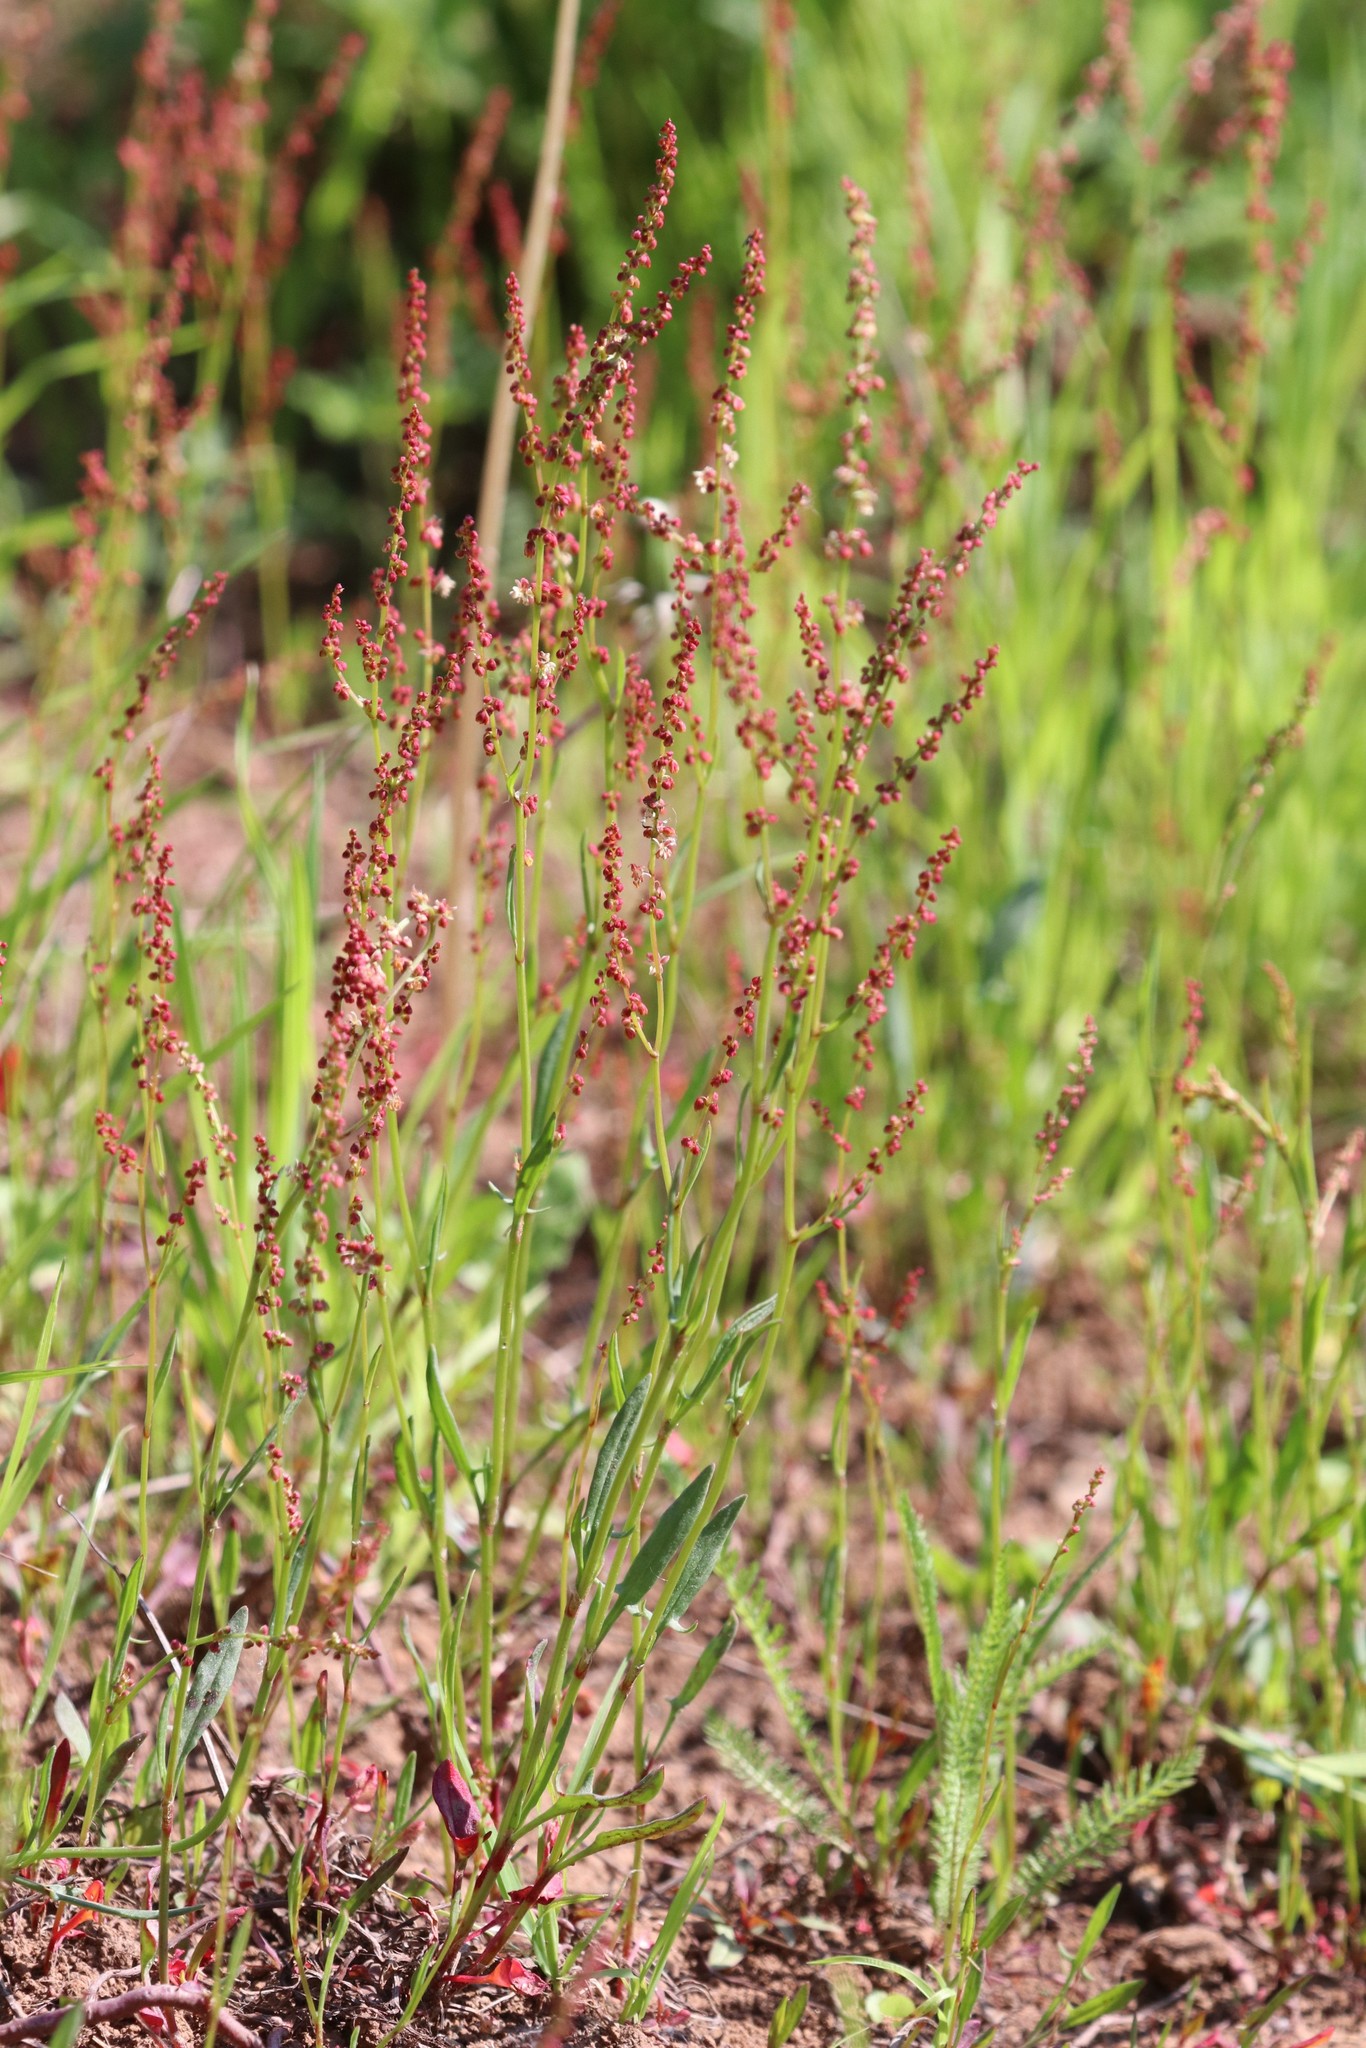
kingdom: Plantae
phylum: Tracheophyta
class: Magnoliopsida
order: Caryophyllales
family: Polygonaceae
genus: Rumex
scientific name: Rumex acetosella
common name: Common sheep sorrel
